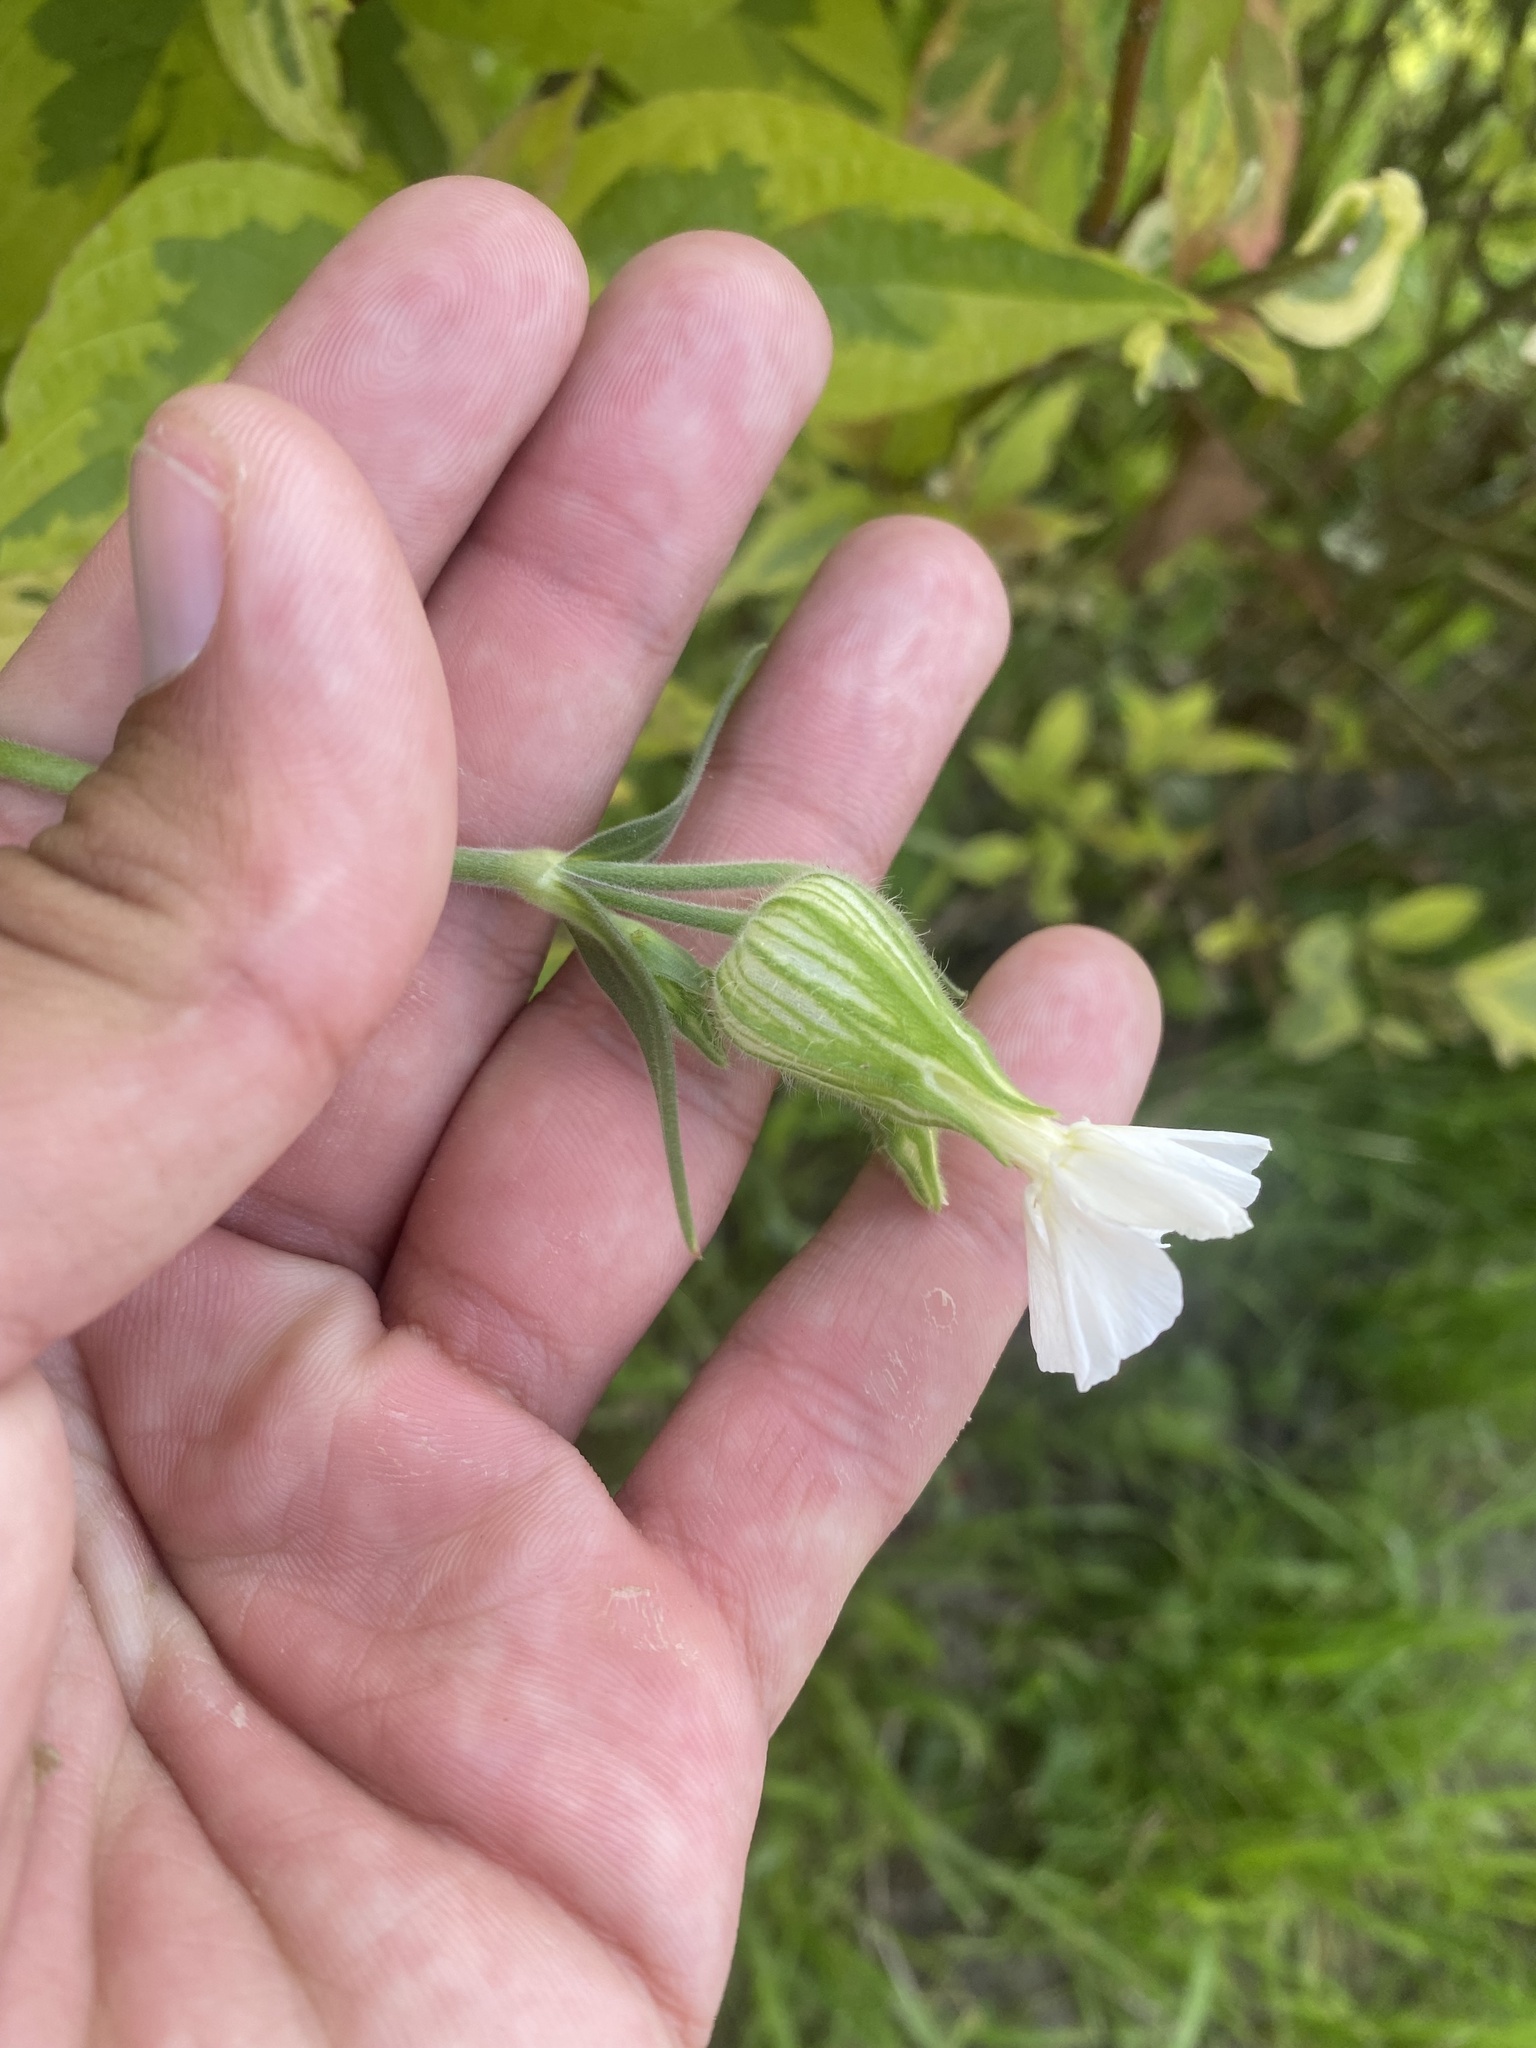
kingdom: Plantae
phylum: Tracheophyta
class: Magnoliopsida
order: Caryophyllales
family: Caryophyllaceae
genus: Silene
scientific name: Silene latifolia
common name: White campion
